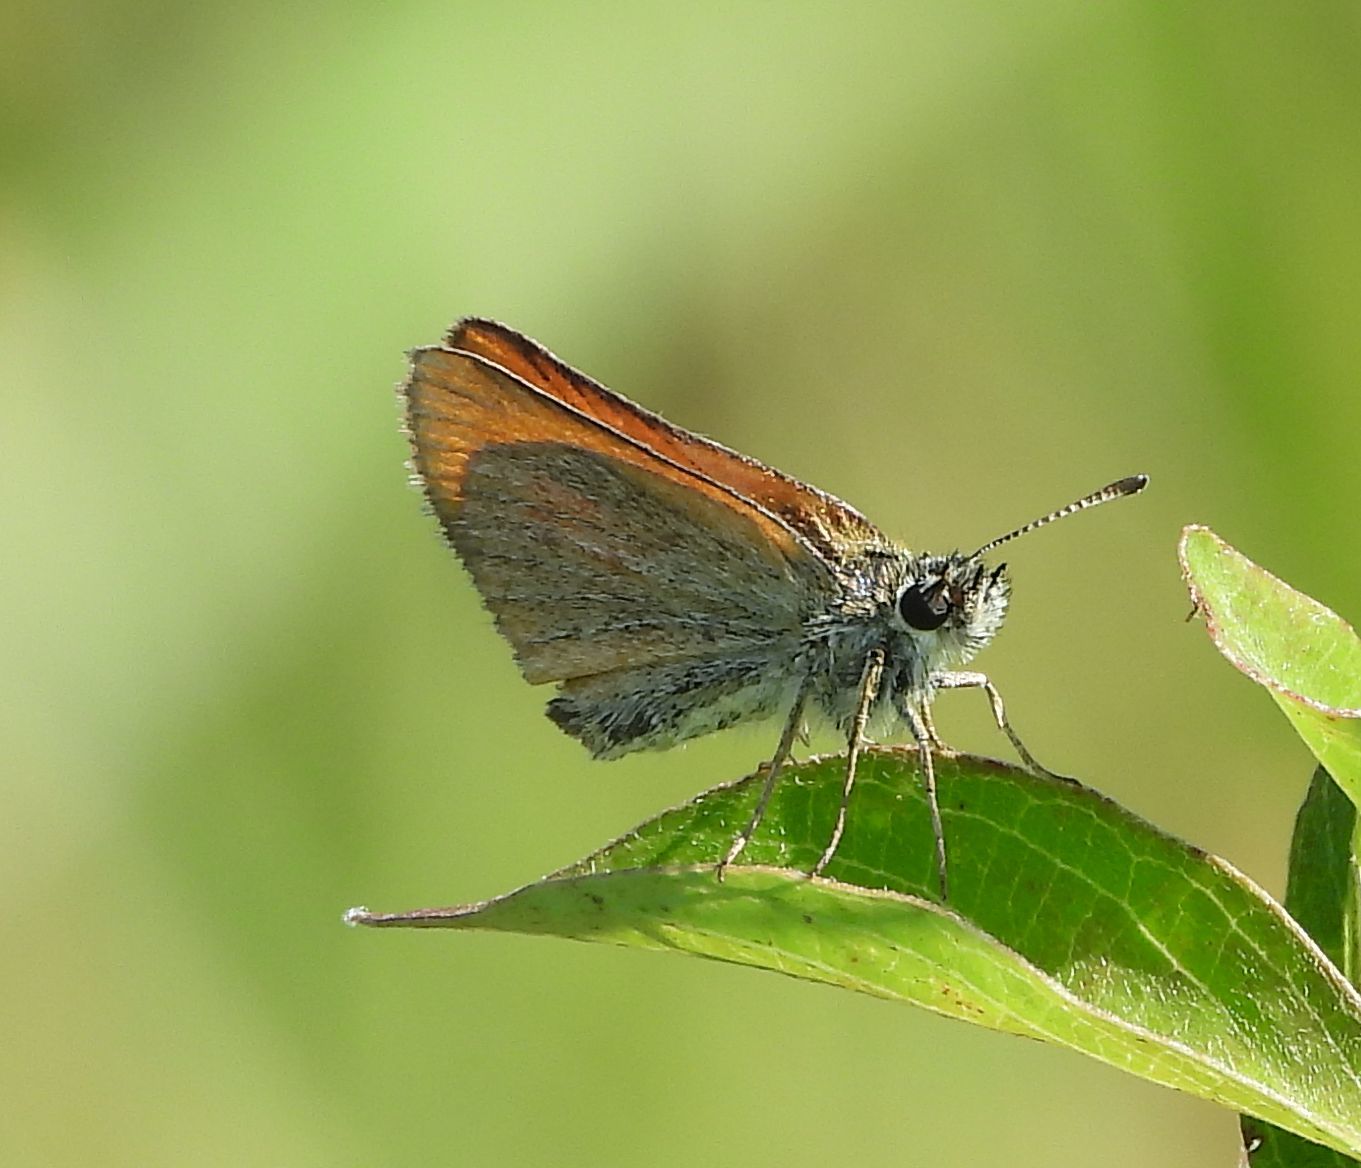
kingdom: Animalia
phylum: Arthropoda
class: Insecta
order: Lepidoptera
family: Hesperiidae
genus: Thymelicus
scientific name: Thymelicus lineola
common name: Essex skipper
